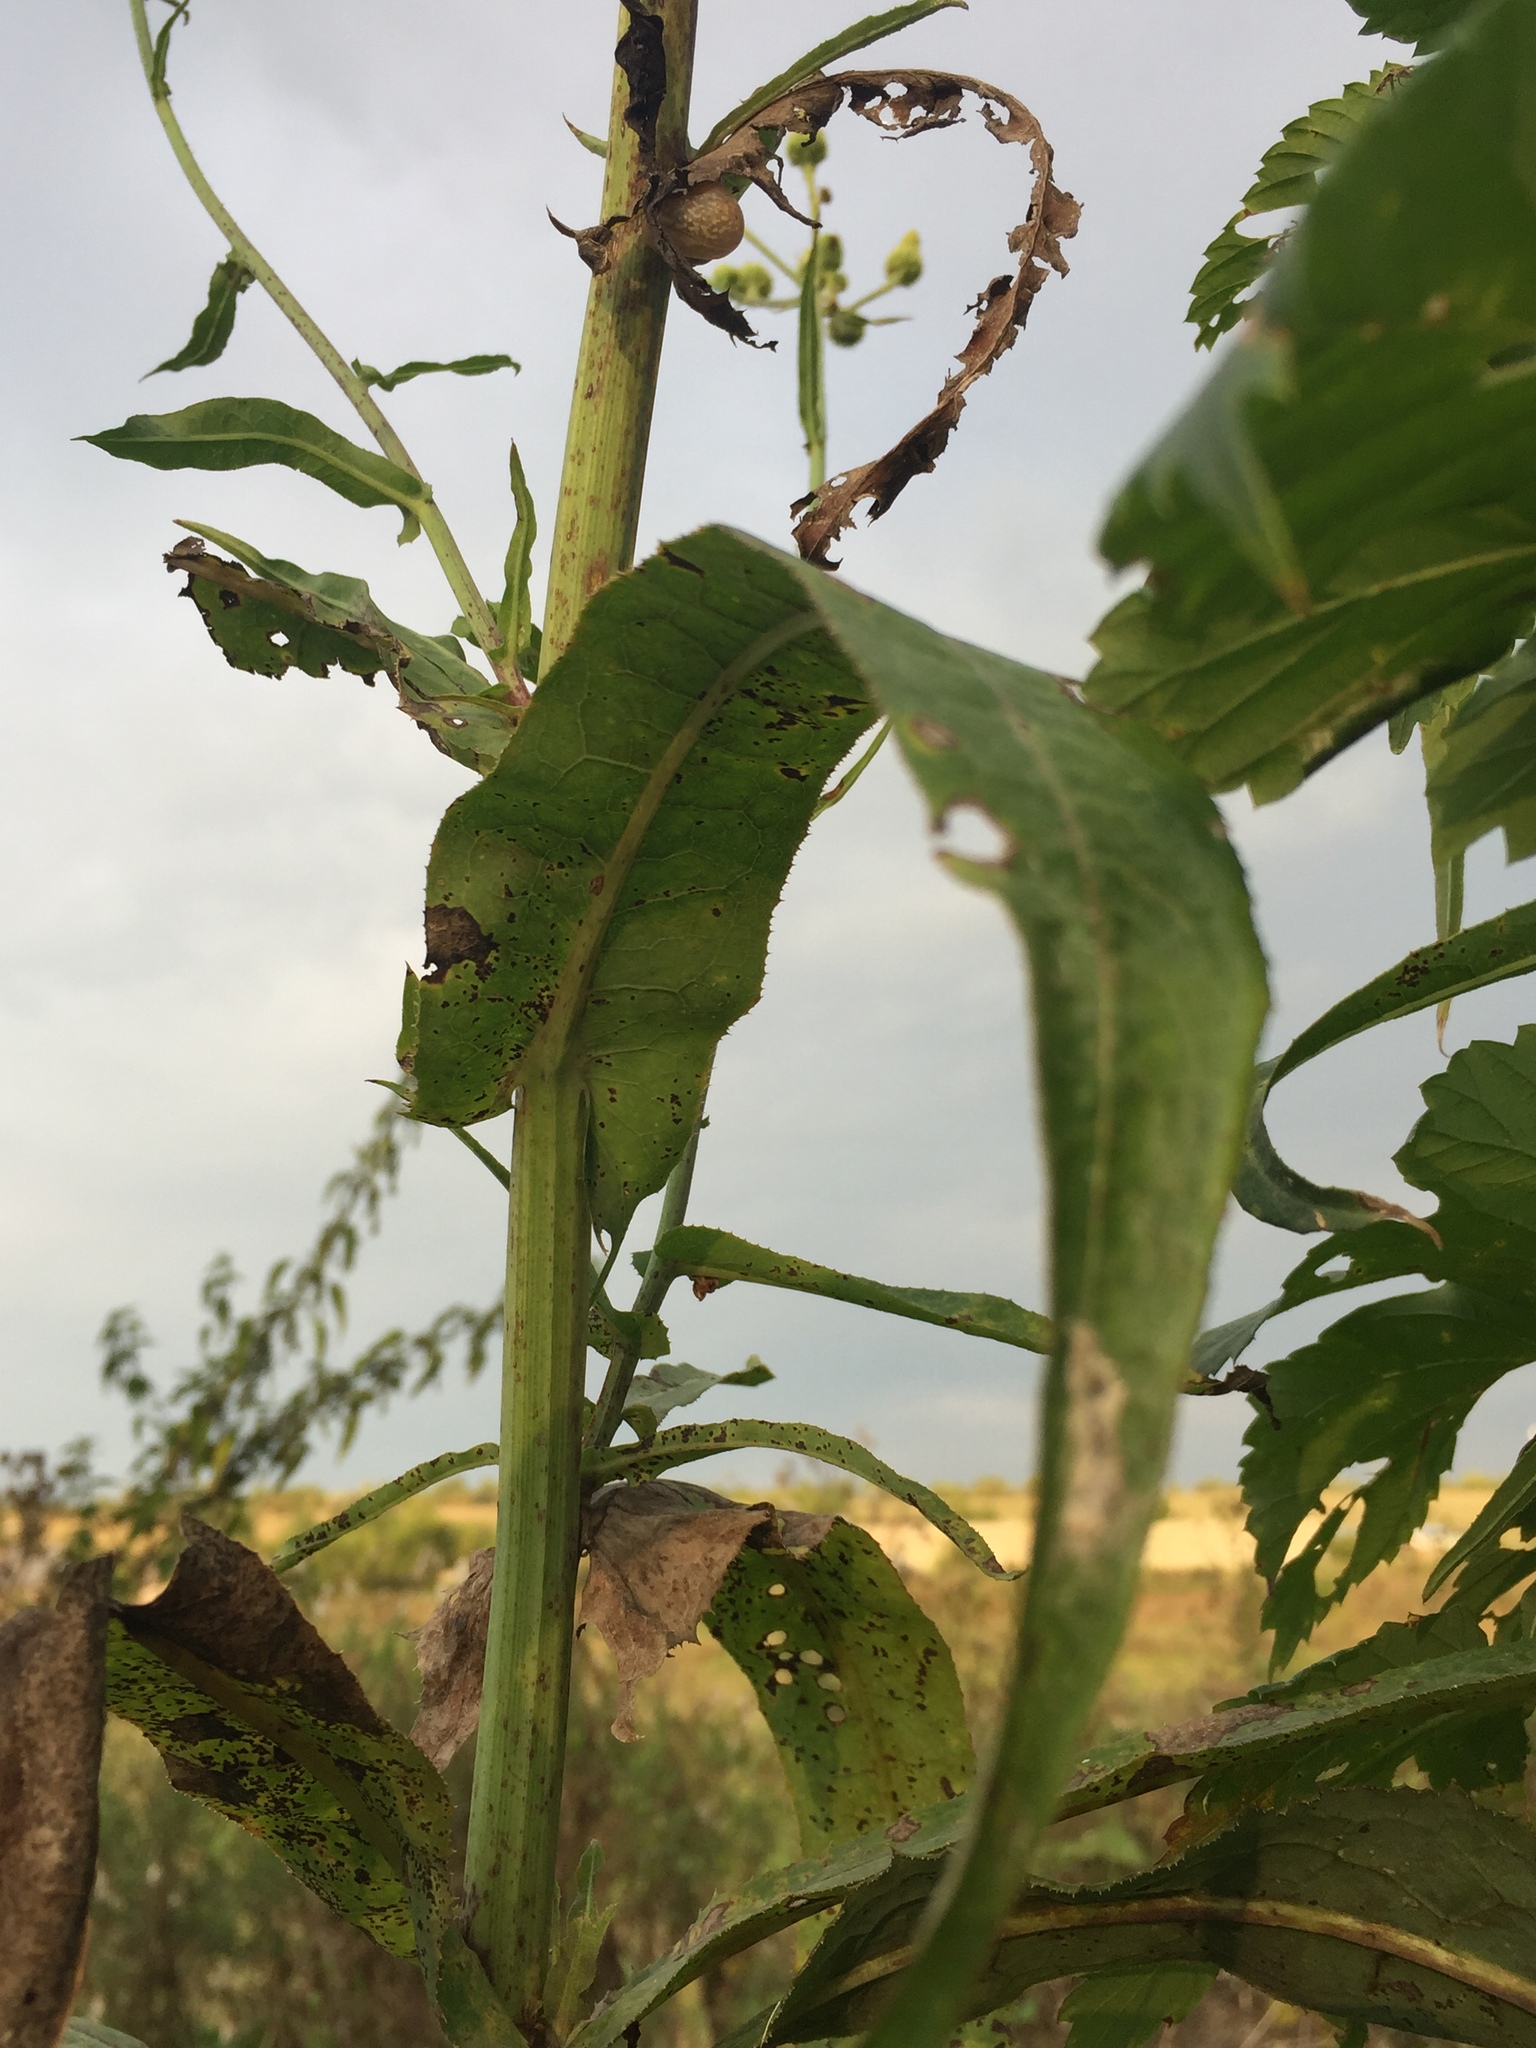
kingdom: Plantae
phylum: Tracheophyta
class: Magnoliopsida
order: Asterales
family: Asteraceae
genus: Sonchus
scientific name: Sonchus palustris
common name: Marsh sow-thistle
